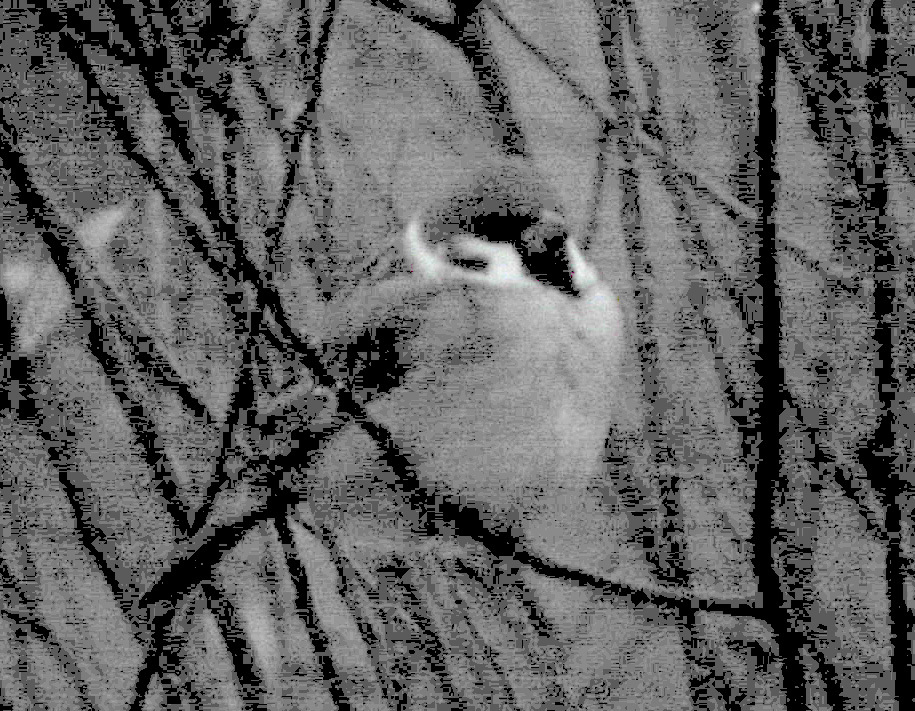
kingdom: Animalia
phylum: Chordata
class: Aves
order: Passeriformes
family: Passeridae
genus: Passer
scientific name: Passer montanus
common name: Eurasian tree sparrow
